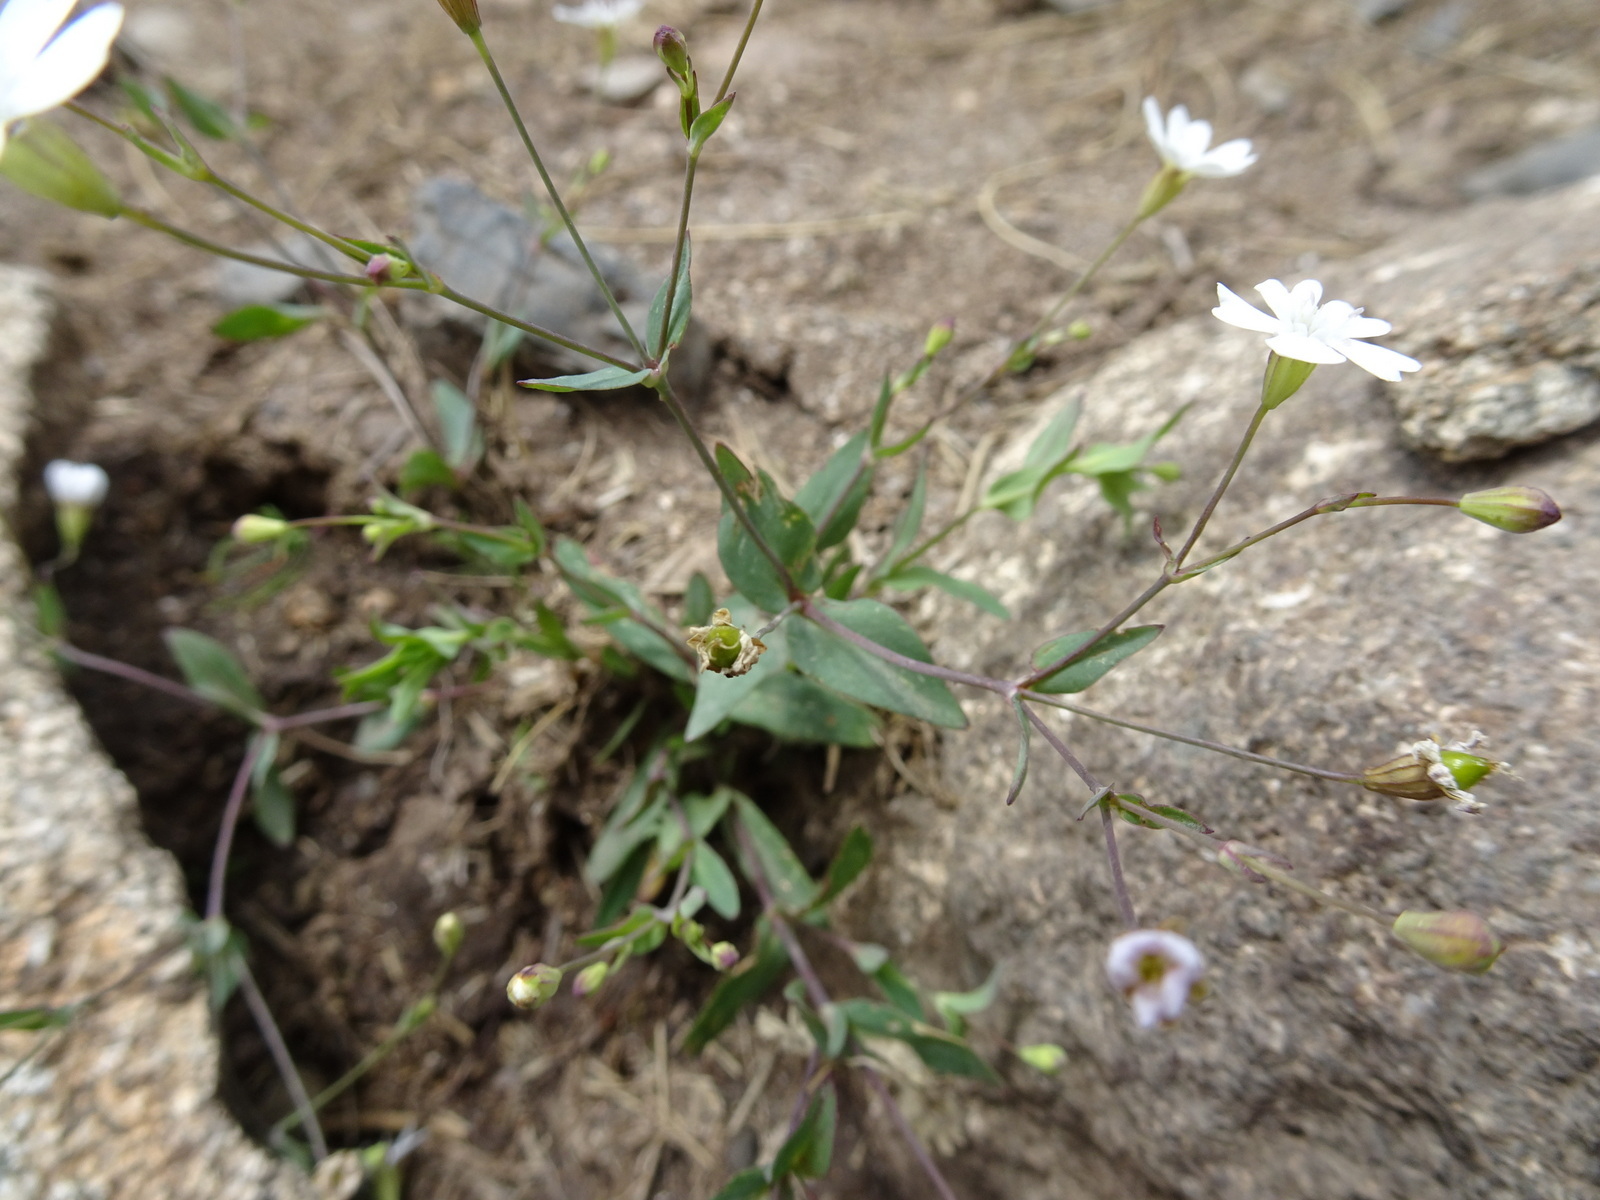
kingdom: Plantae
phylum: Tracheophyta
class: Magnoliopsida
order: Caryophyllales
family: Caryophyllaceae
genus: Atocion
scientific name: Atocion rupestre
